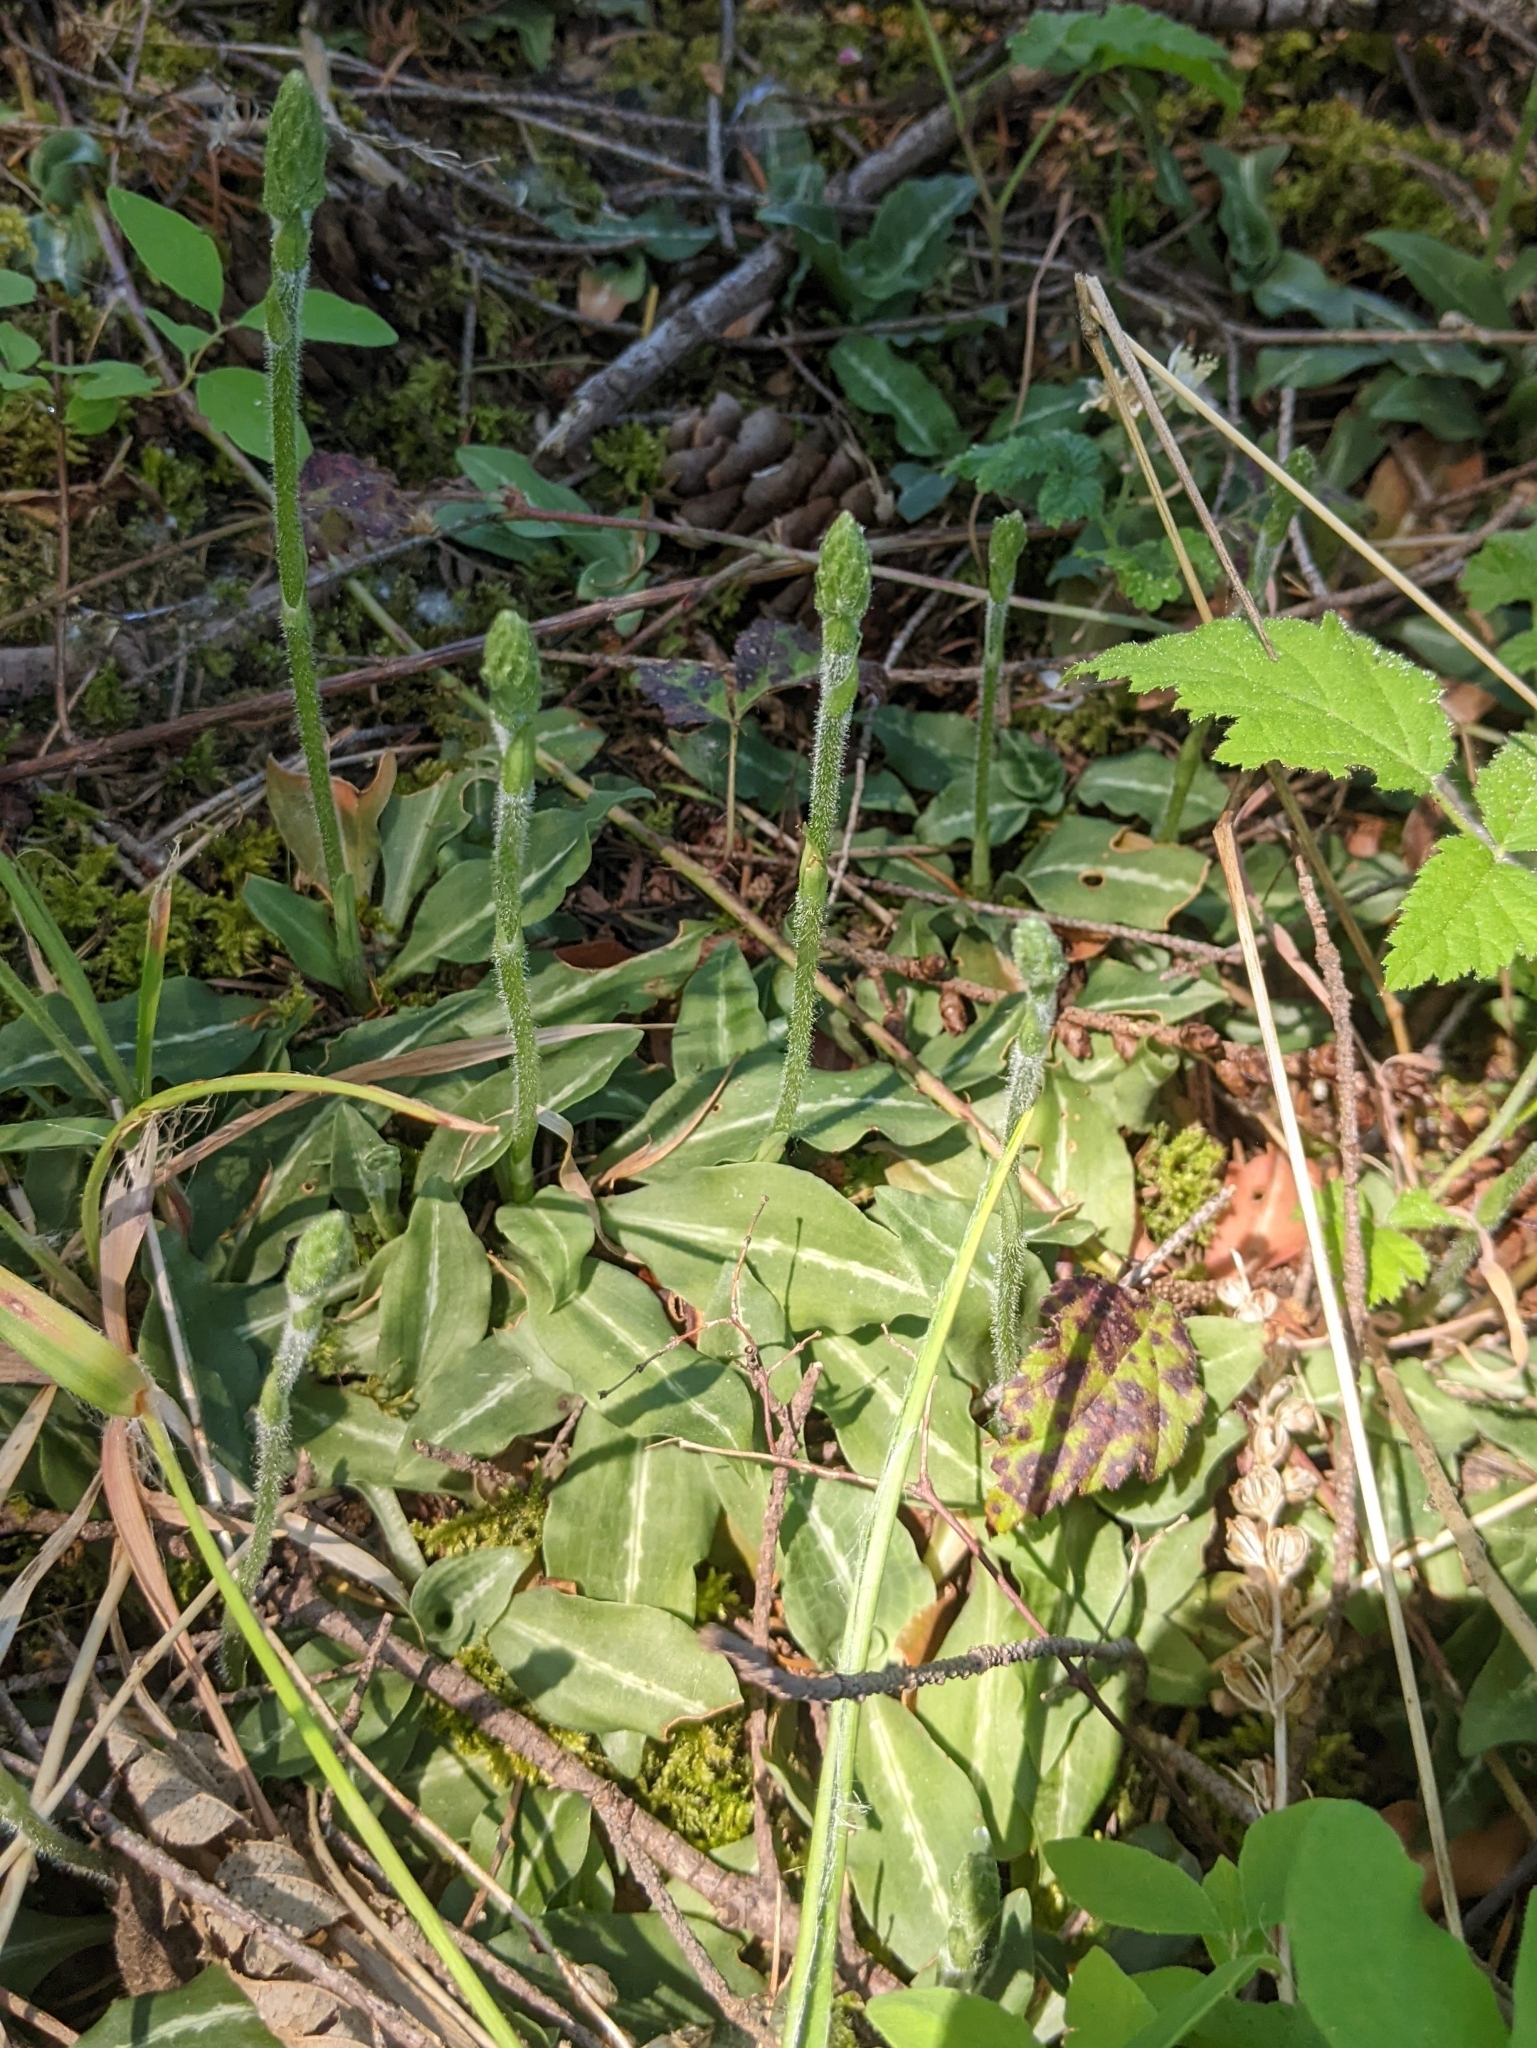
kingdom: Plantae
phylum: Tracheophyta
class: Liliopsida
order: Asparagales
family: Orchidaceae
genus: Goodyera
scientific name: Goodyera oblongifolia
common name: Giant rattlesnake-plantain
